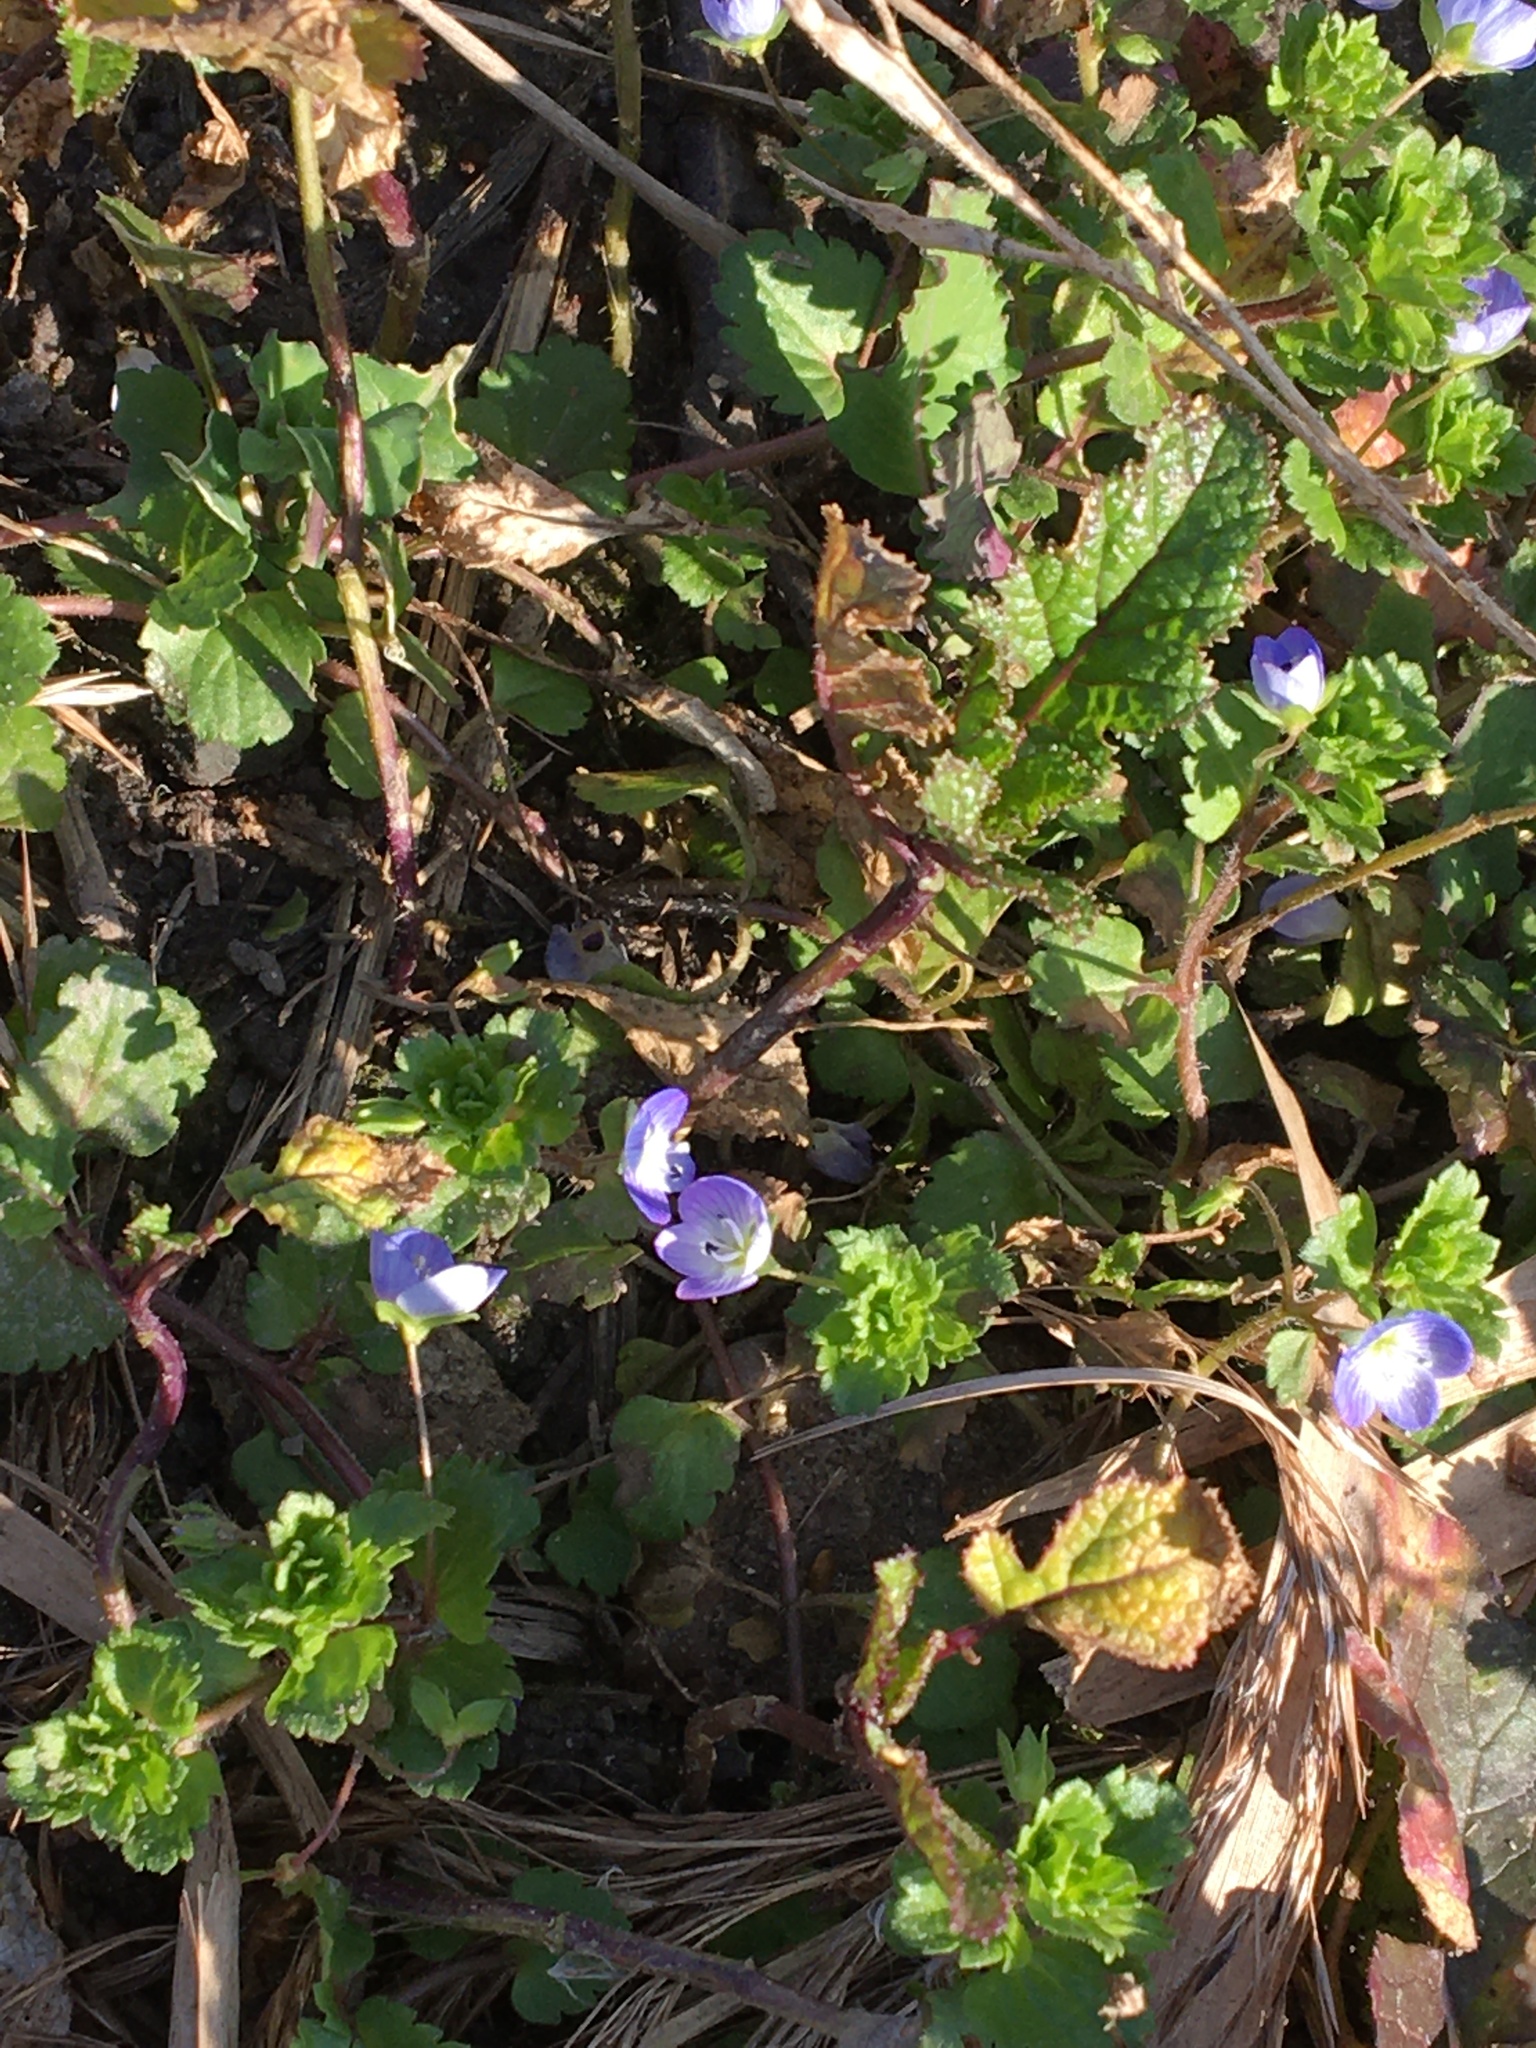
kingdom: Plantae
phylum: Tracheophyta
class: Magnoliopsida
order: Lamiales
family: Plantaginaceae
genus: Veronica
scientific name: Veronica persica
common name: Common field-speedwell
